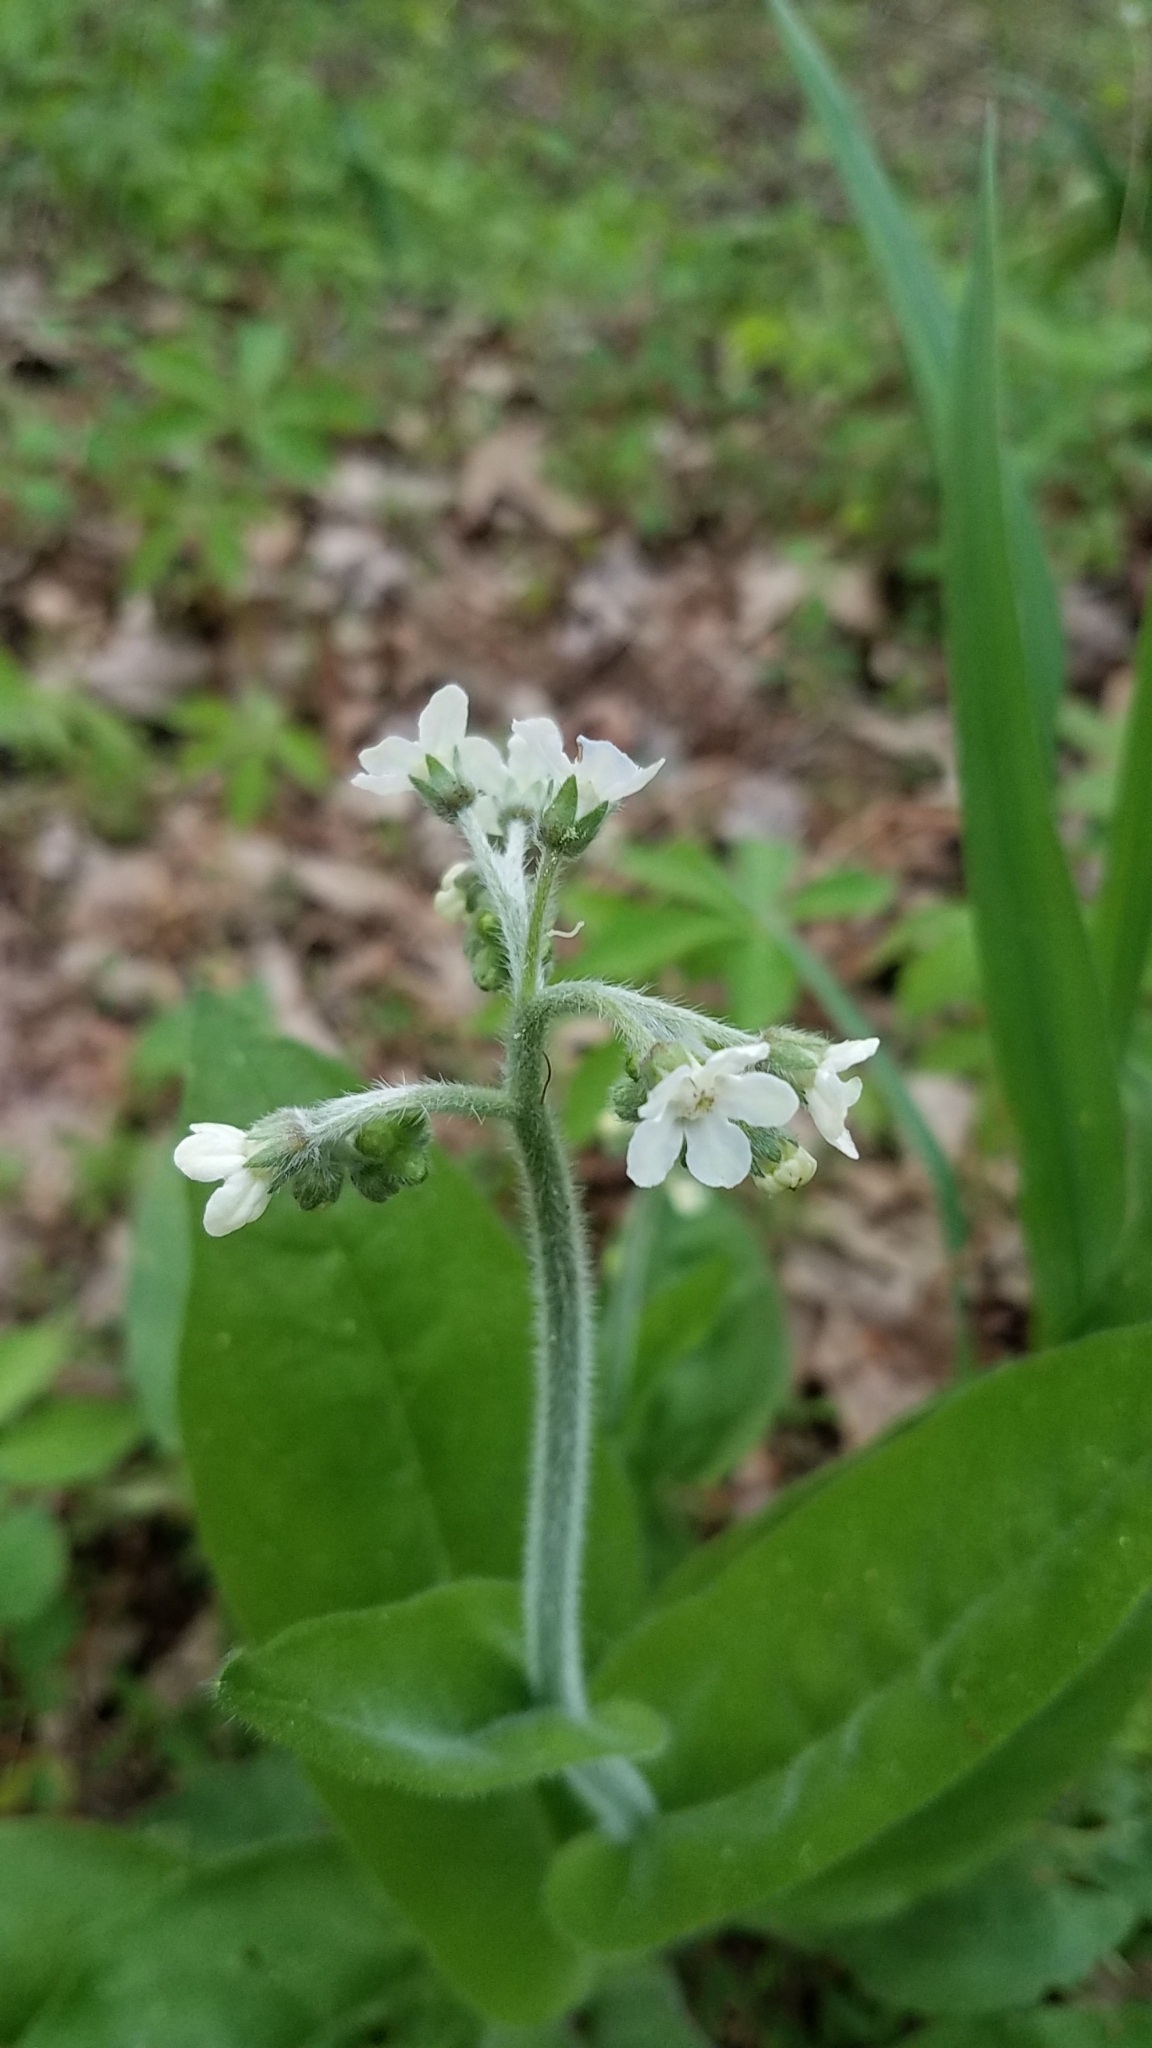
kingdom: Plantae
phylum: Tracheophyta
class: Magnoliopsida
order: Boraginales
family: Boraginaceae
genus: Andersonglossum
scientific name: Andersonglossum virginianum
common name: Wild comfrey
